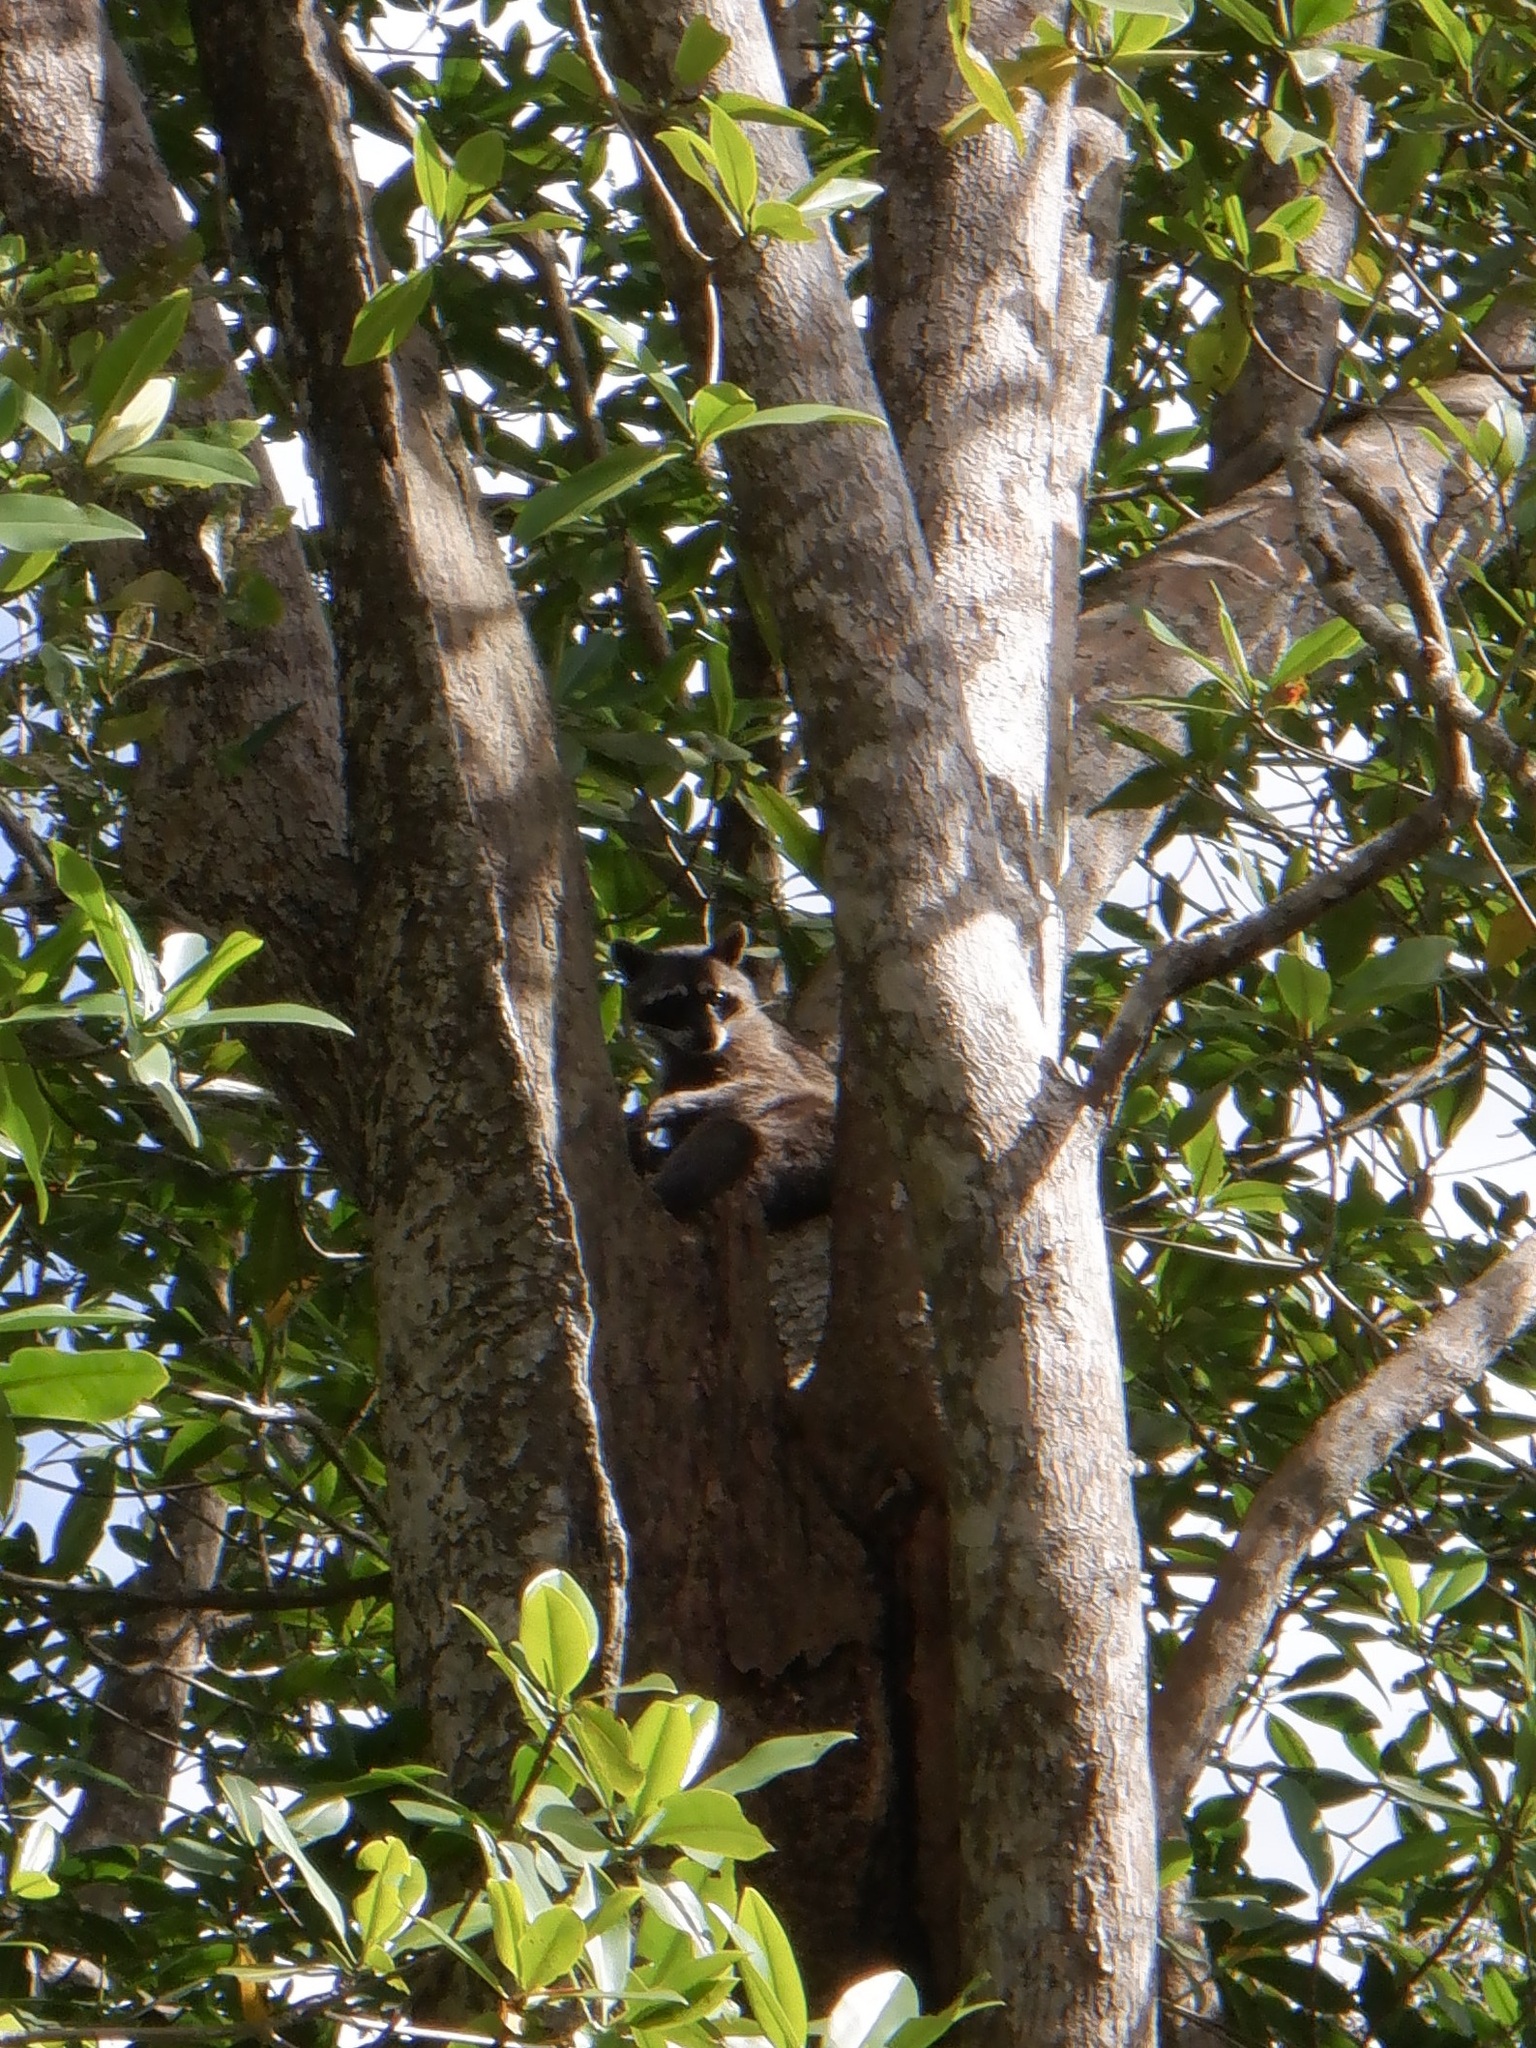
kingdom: Animalia
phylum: Chordata
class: Mammalia
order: Carnivora
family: Procyonidae
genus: Procyon
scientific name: Procyon lotor
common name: Raccoon
